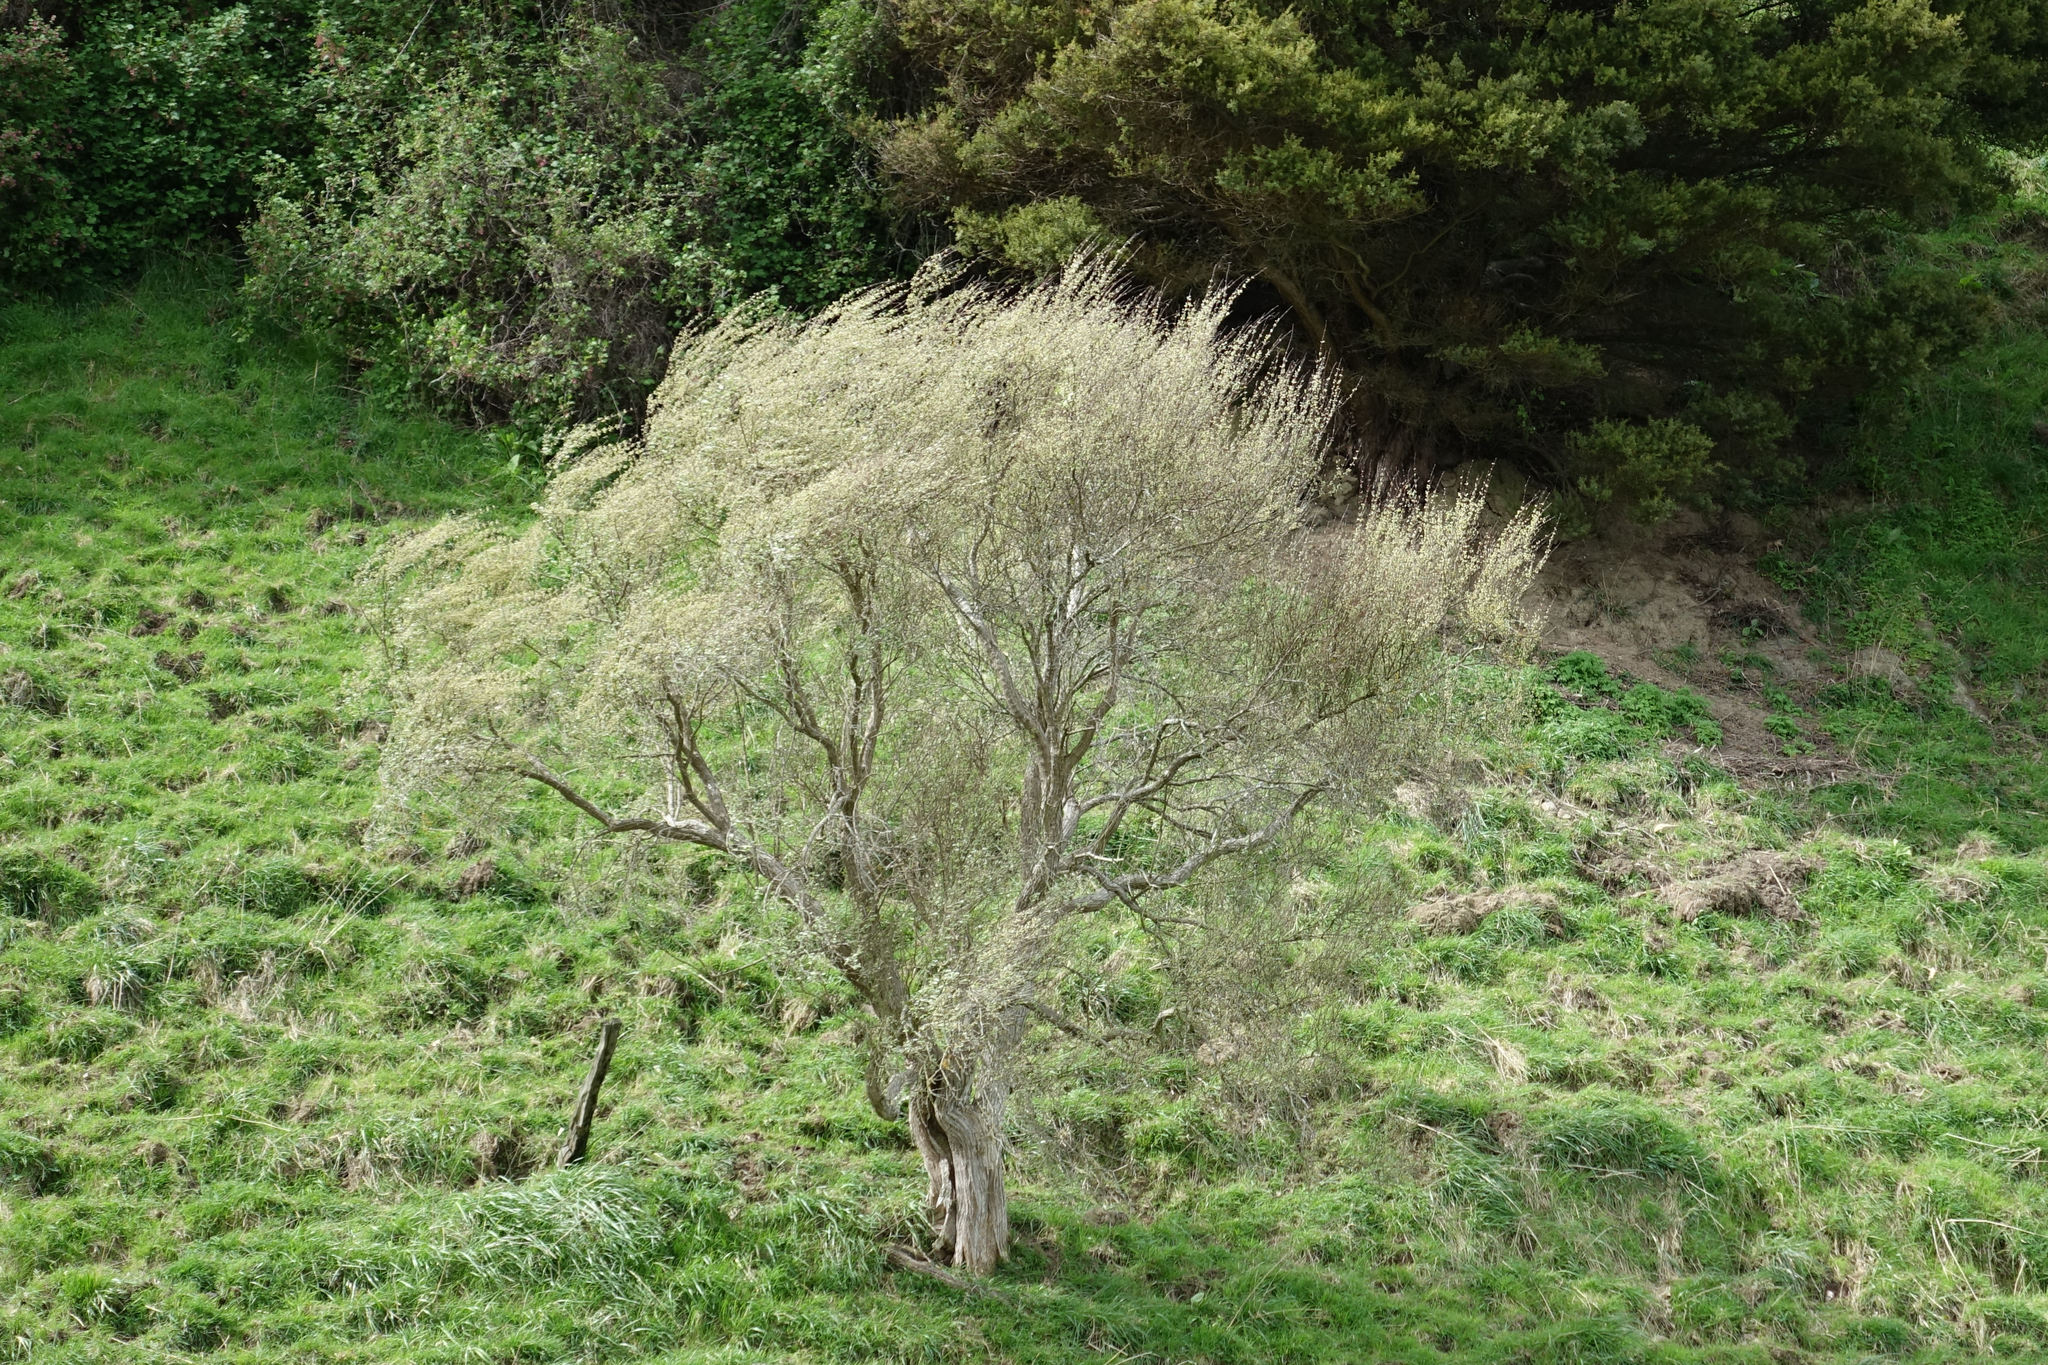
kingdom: Plantae
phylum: Tracheophyta
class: Magnoliopsida
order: Asterales
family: Asteraceae
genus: Olearia
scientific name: Olearia hectorii
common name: Deciduous tree daisy
